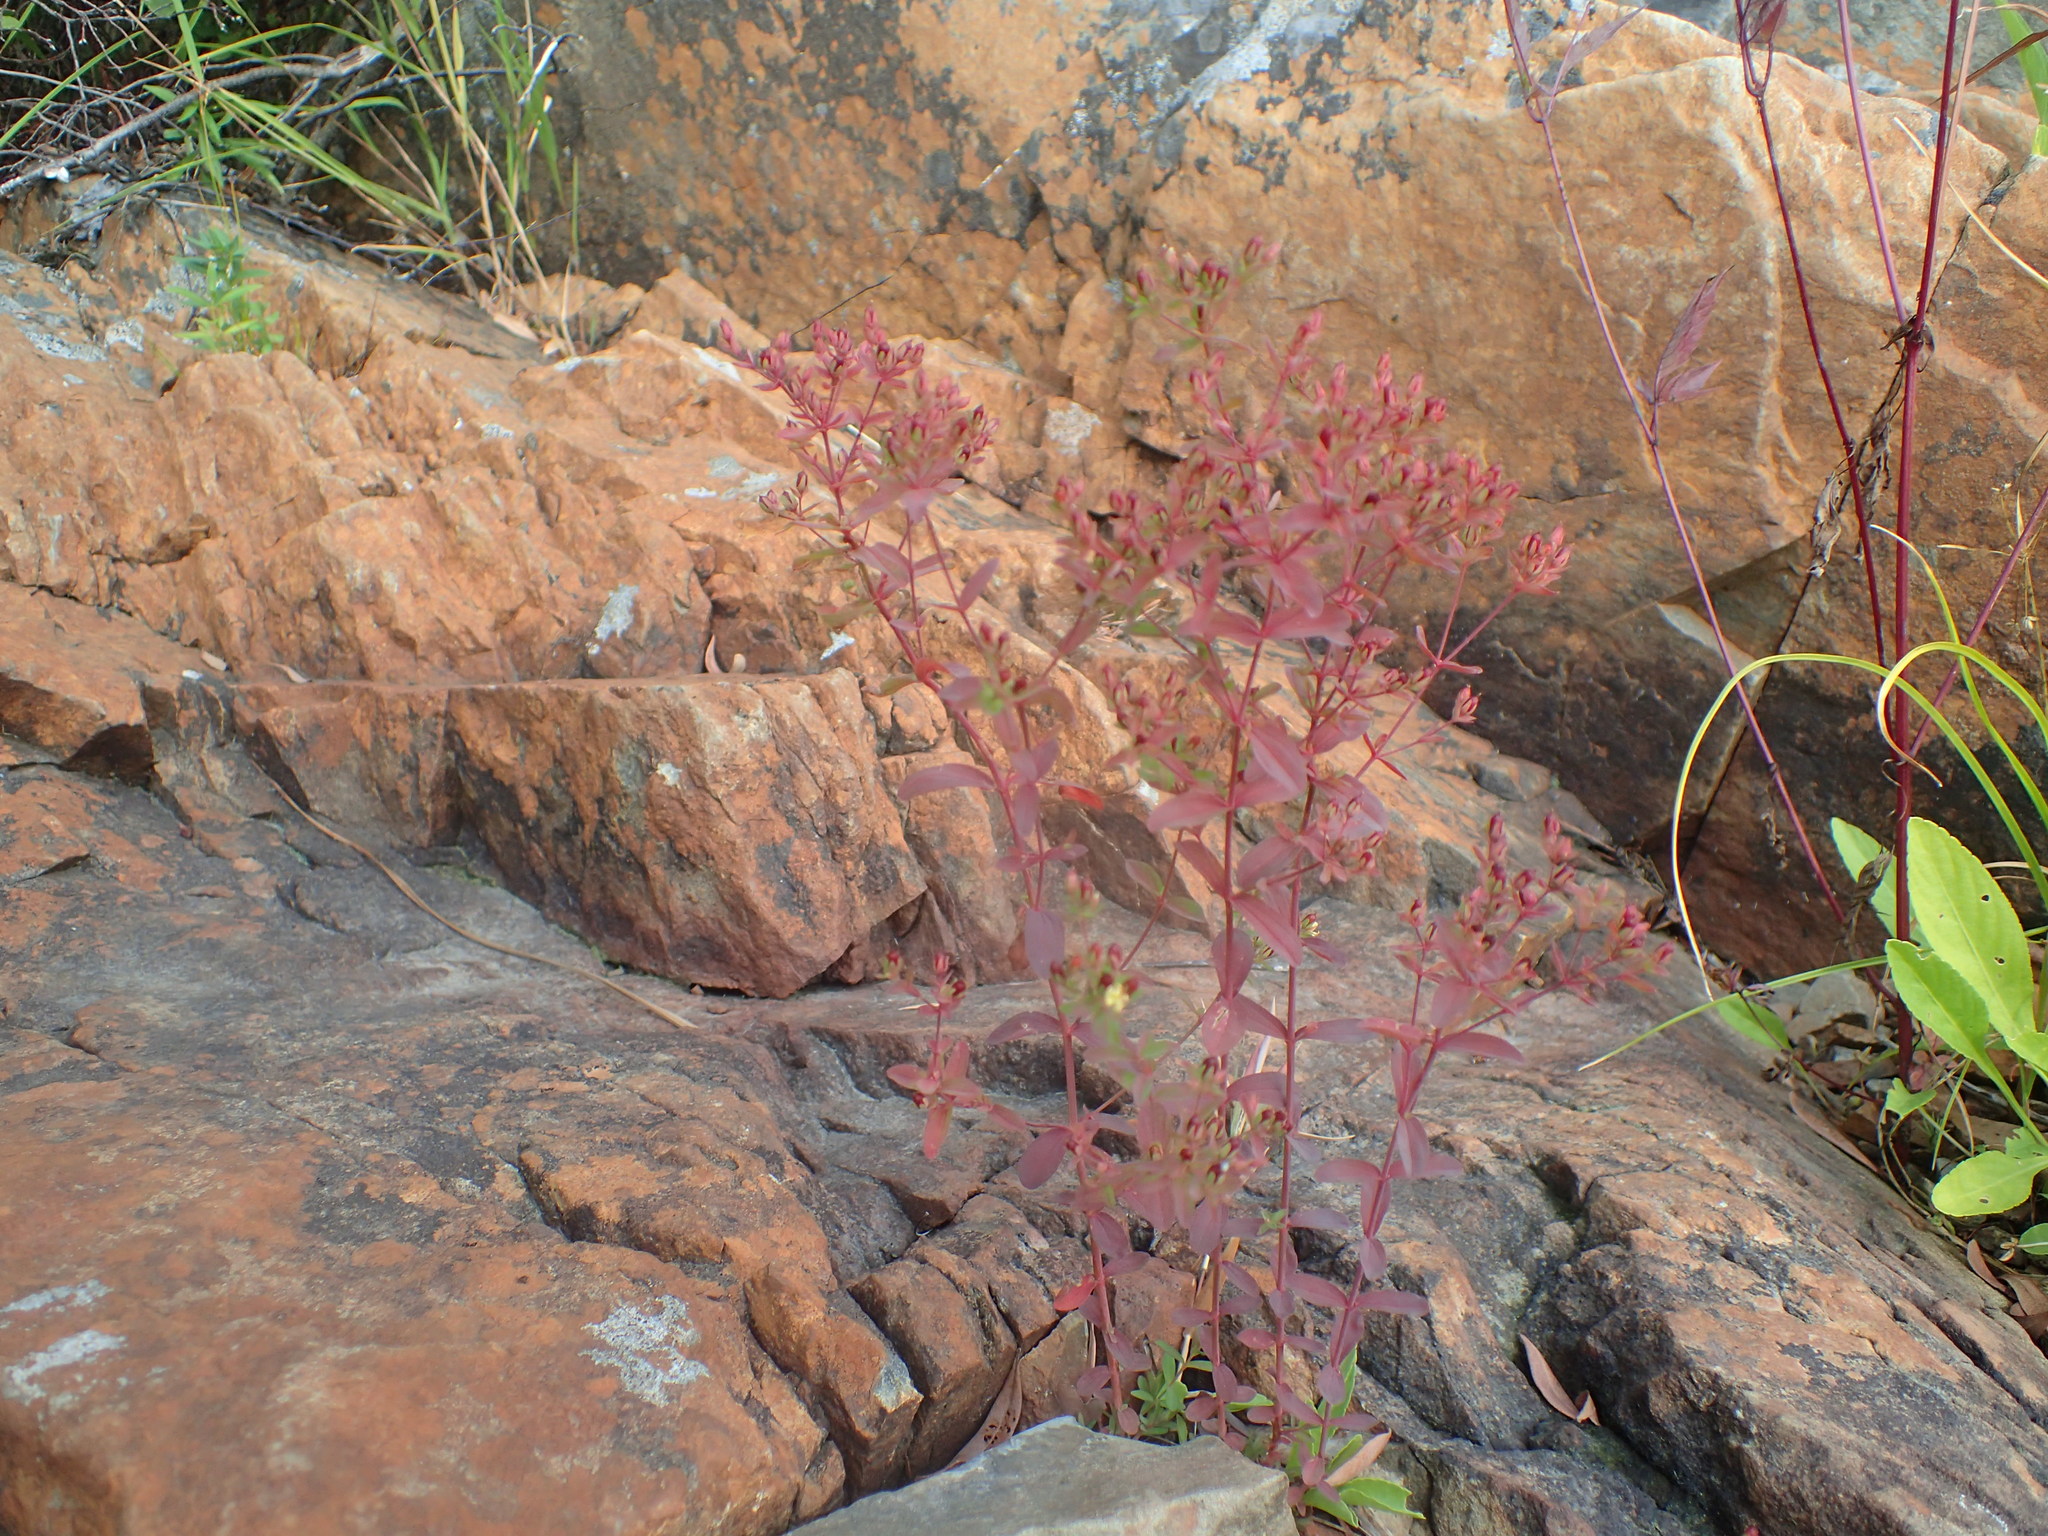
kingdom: Plantae
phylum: Tracheophyta
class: Magnoliopsida
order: Malpighiales
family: Hypericaceae
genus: Hypericum
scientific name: Hypericum boreale
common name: Northern bog st. john's-wort
